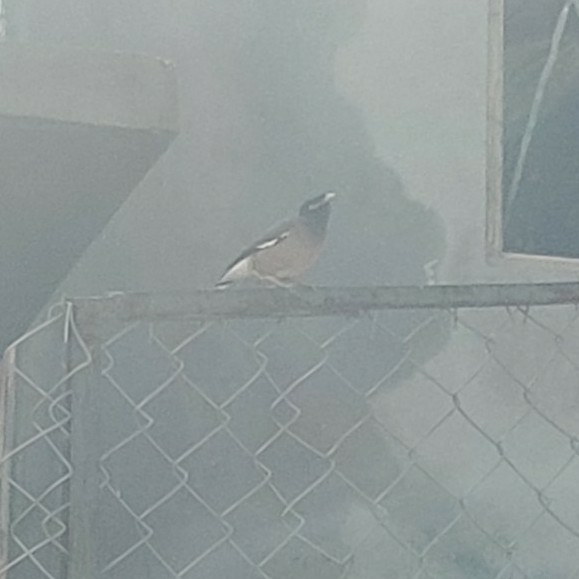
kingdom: Animalia
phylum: Chordata
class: Aves
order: Passeriformes
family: Sturnidae
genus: Acridotheres
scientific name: Acridotheres tristis
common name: Common myna
